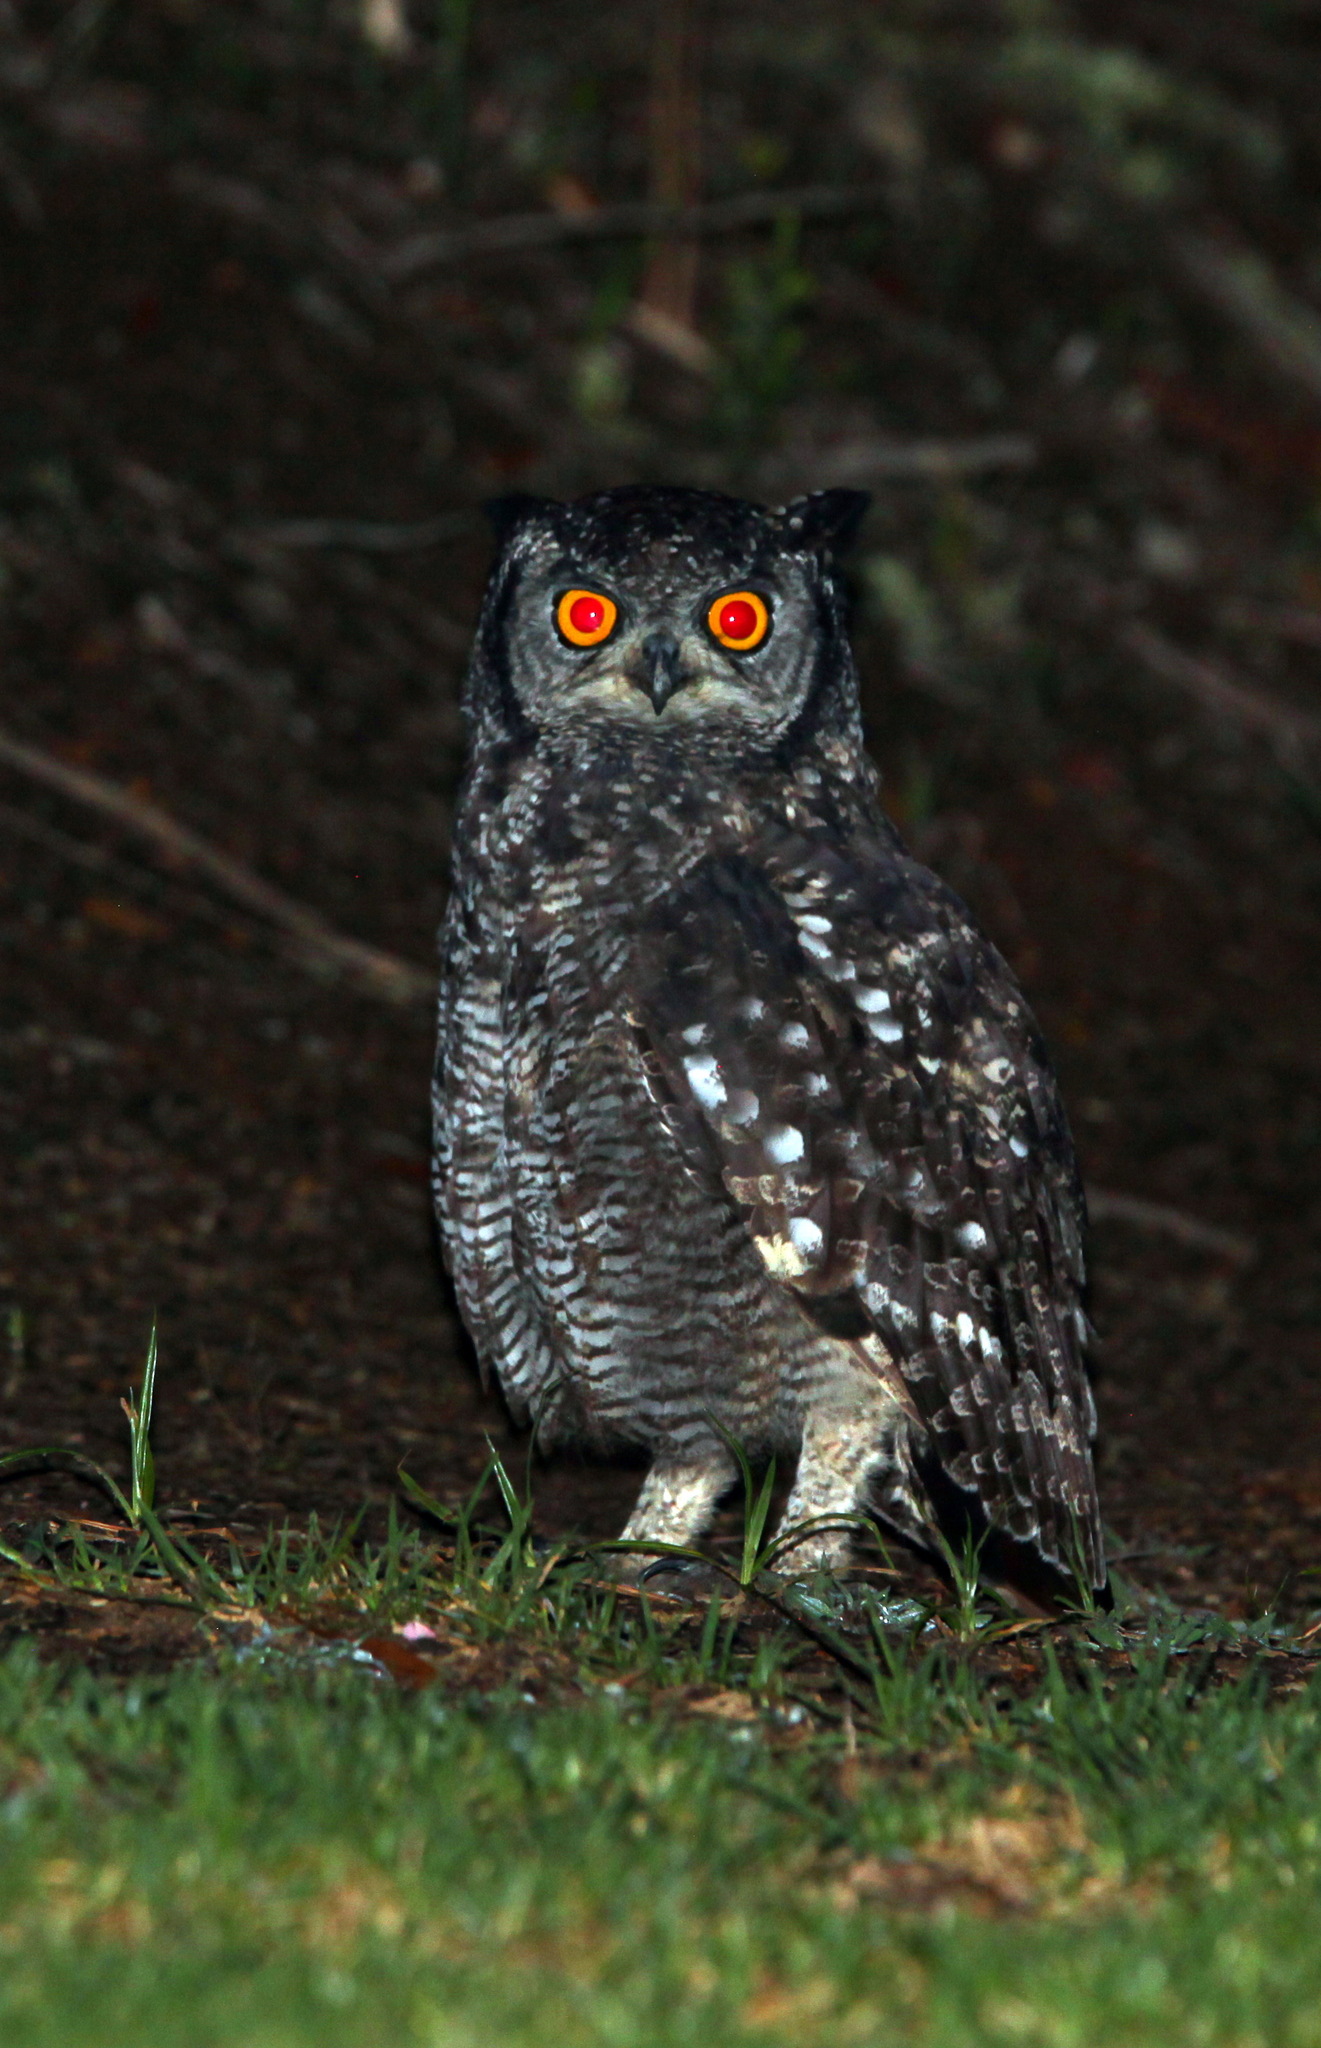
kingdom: Animalia
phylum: Chordata
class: Aves
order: Strigiformes
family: Strigidae
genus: Bubo
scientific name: Bubo africanus
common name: Spotted eagle-owl
